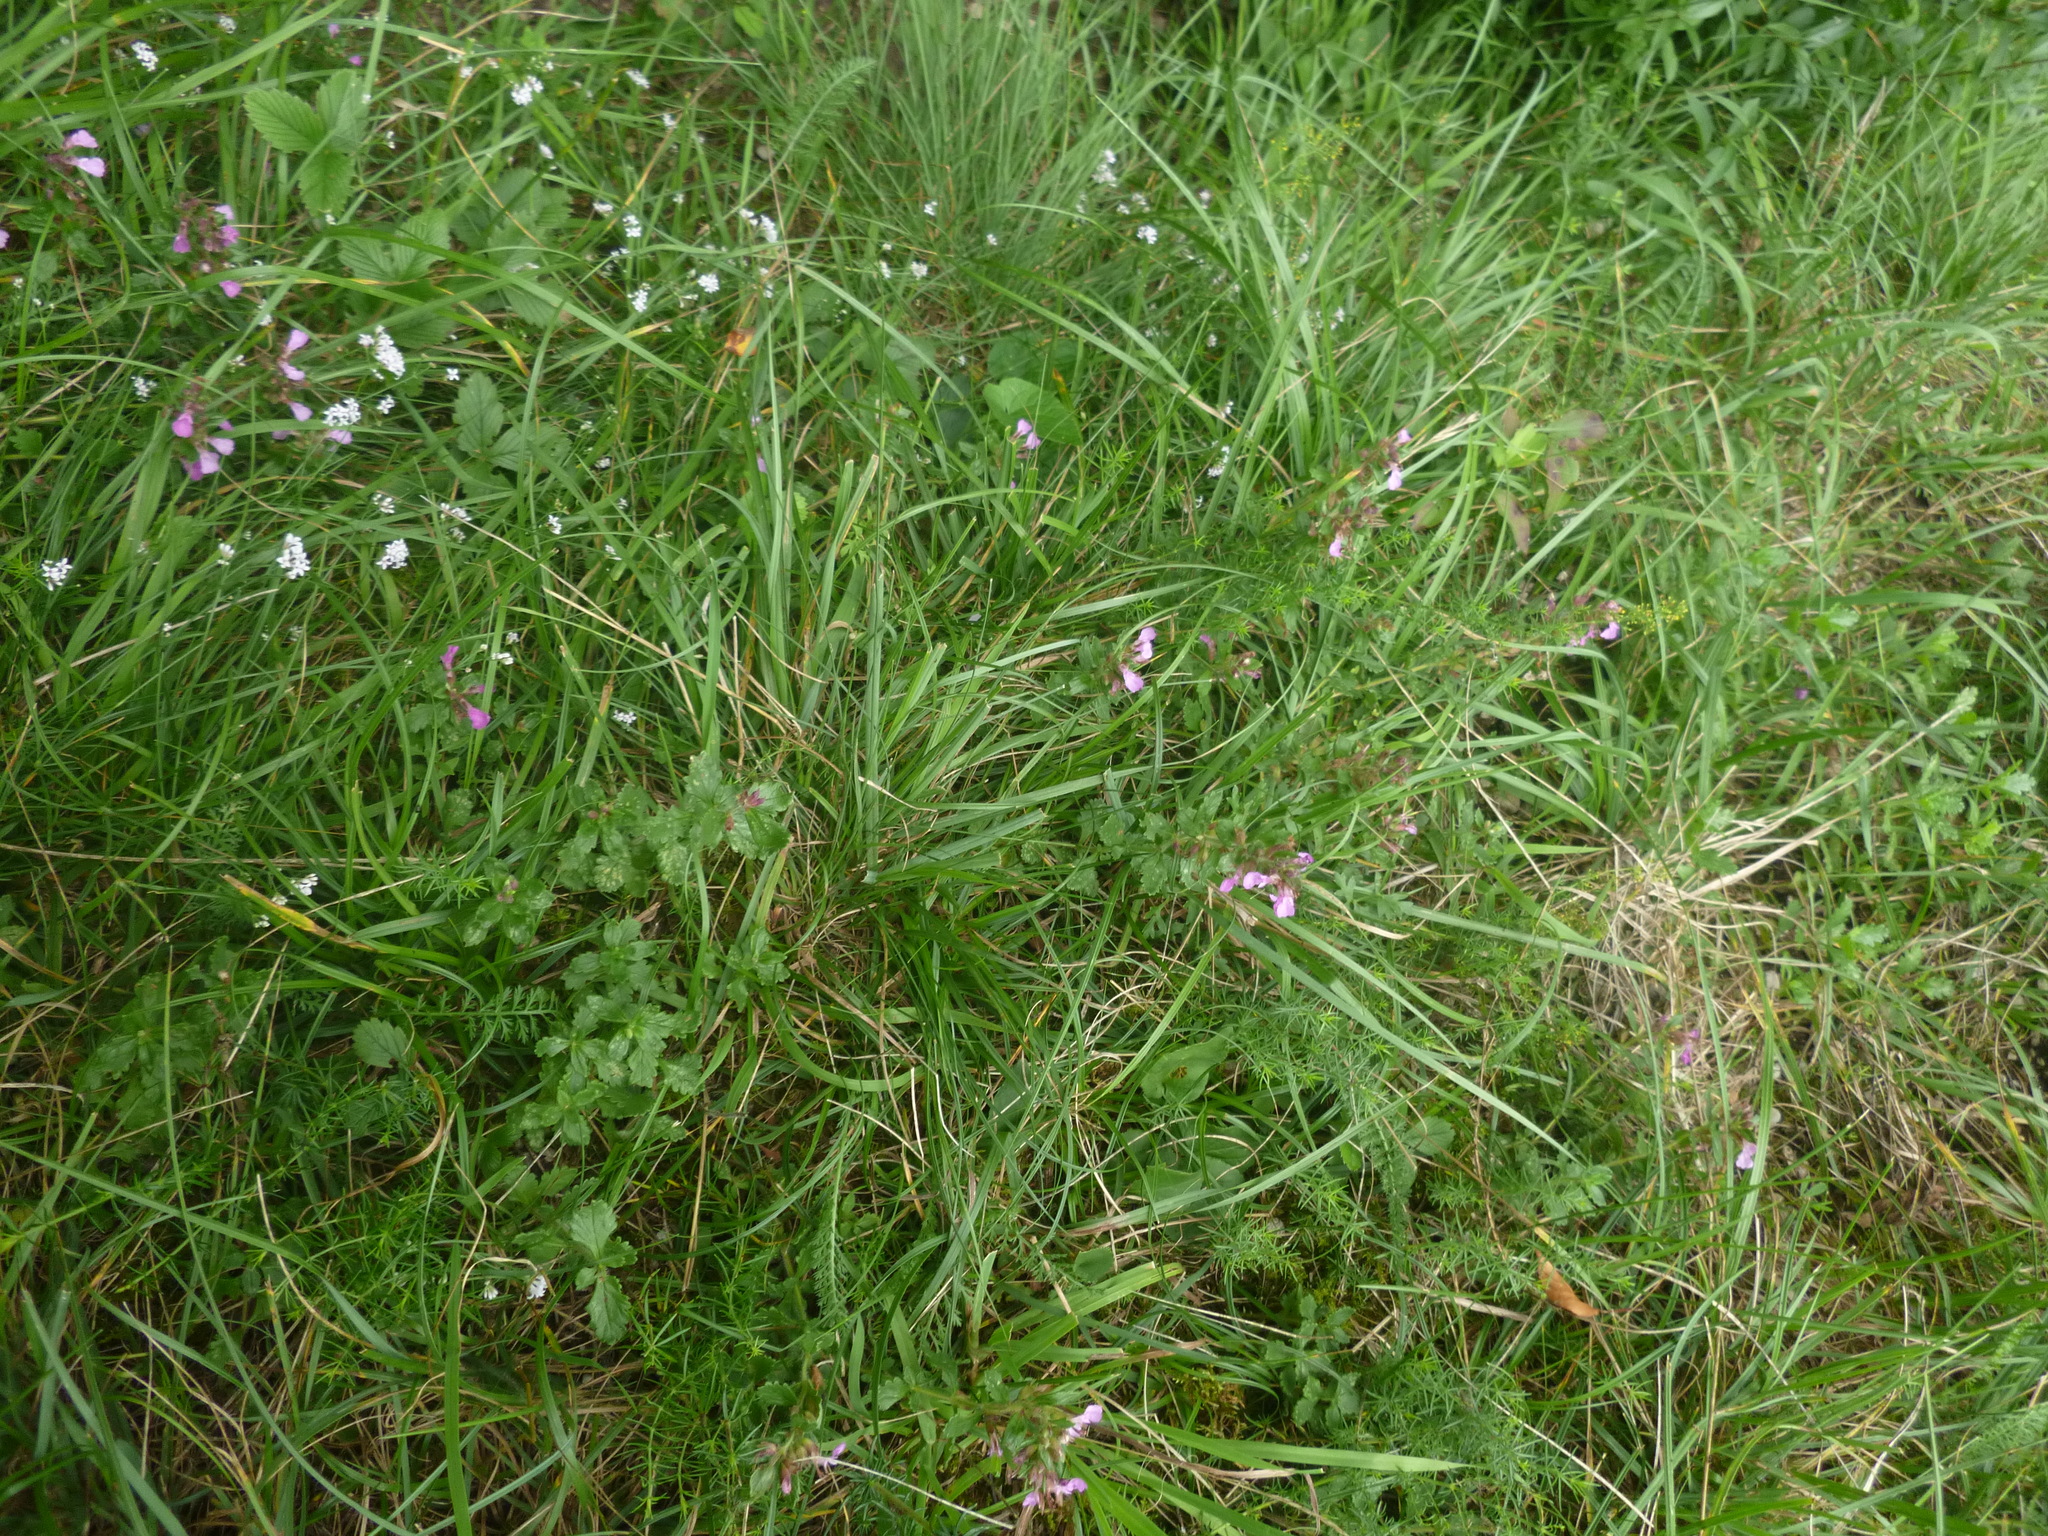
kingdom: Plantae
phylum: Tracheophyta
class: Magnoliopsida
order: Lamiales
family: Lamiaceae
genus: Teucrium
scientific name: Teucrium chamaedrys
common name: Wall germander
